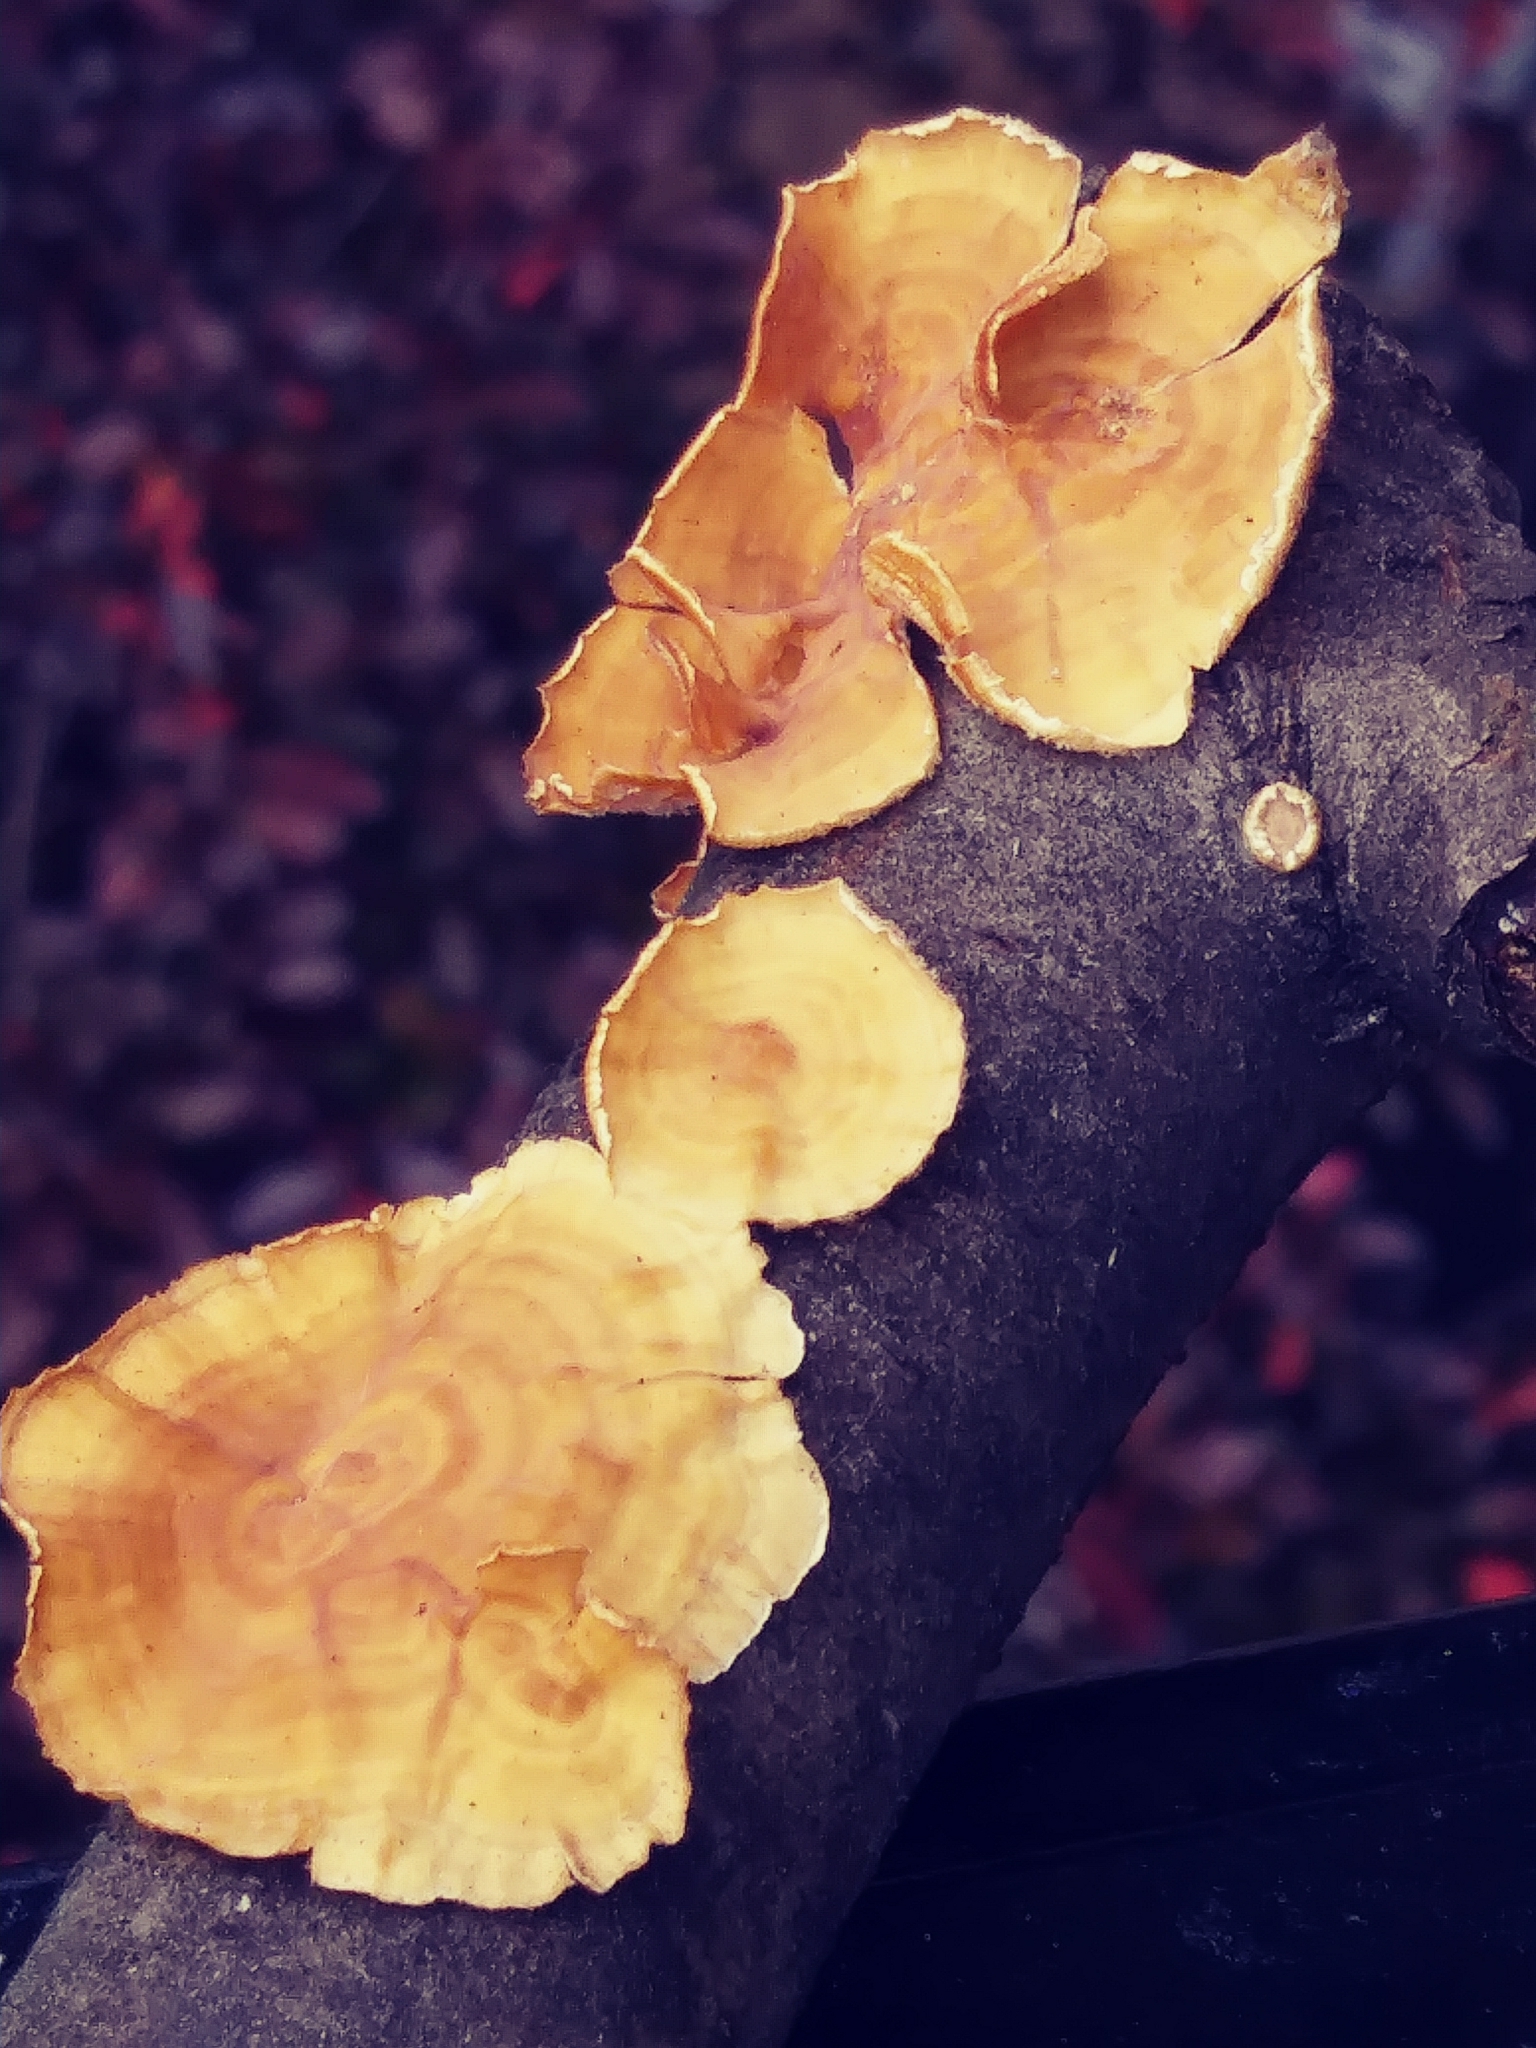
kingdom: Fungi
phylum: Basidiomycota
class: Agaricomycetes
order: Russulales
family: Stereaceae
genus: Stereum
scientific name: Stereum complicatum
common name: Crowded parchment
